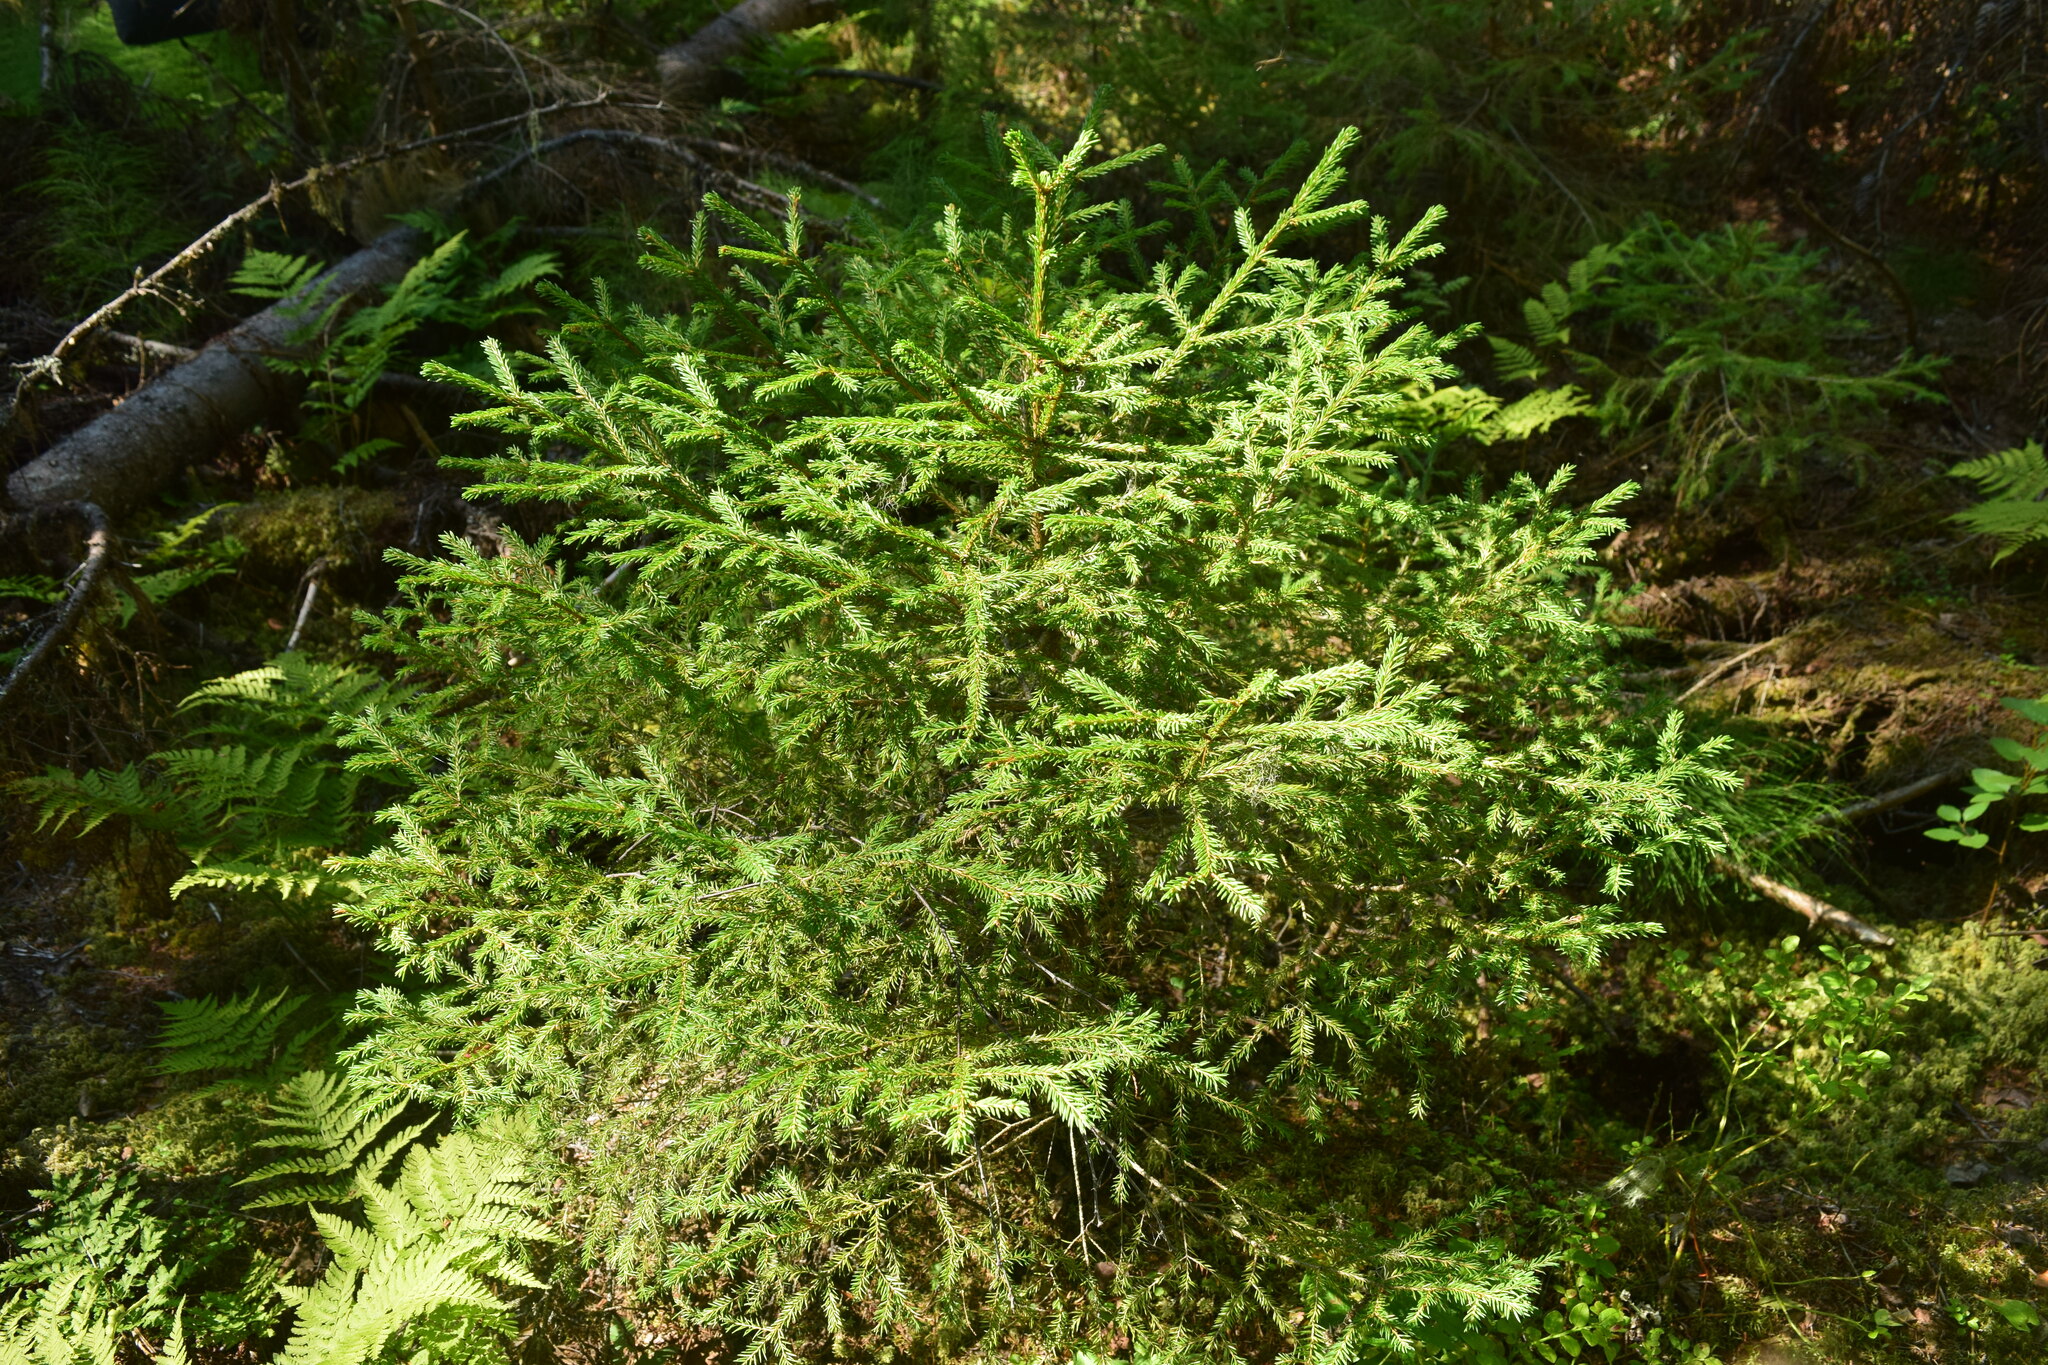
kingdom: Plantae
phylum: Tracheophyta
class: Pinopsida
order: Pinales
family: Pinaceae
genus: Picea
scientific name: Picea
